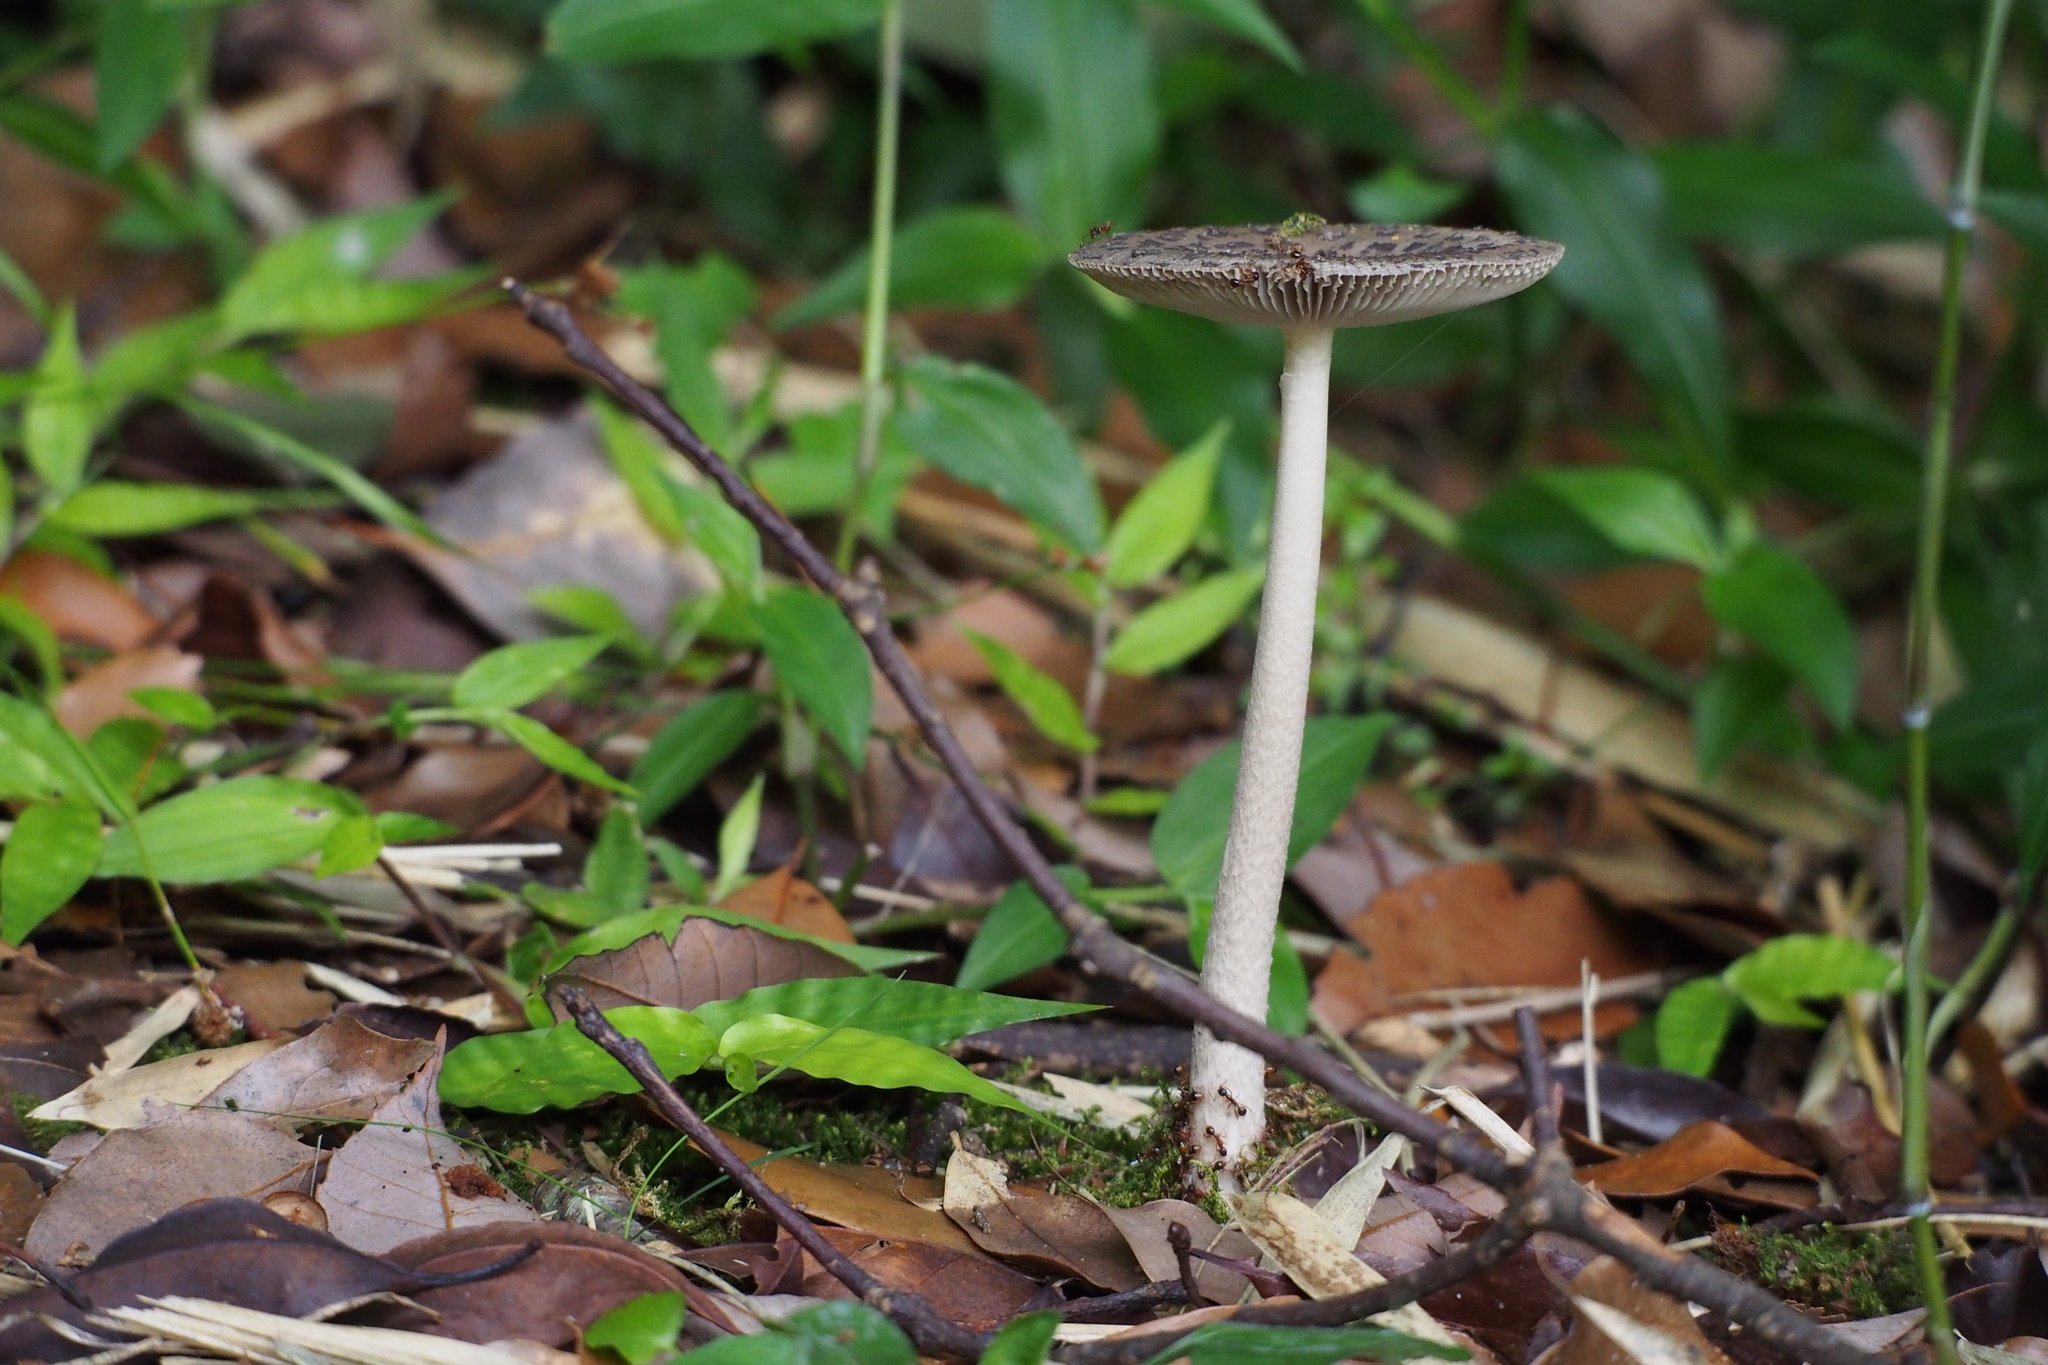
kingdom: Fungi
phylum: Basidiomycota
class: Agaricomycetes
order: Agaricales
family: Amanitaceae
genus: Amanita
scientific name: Amanita liquii
